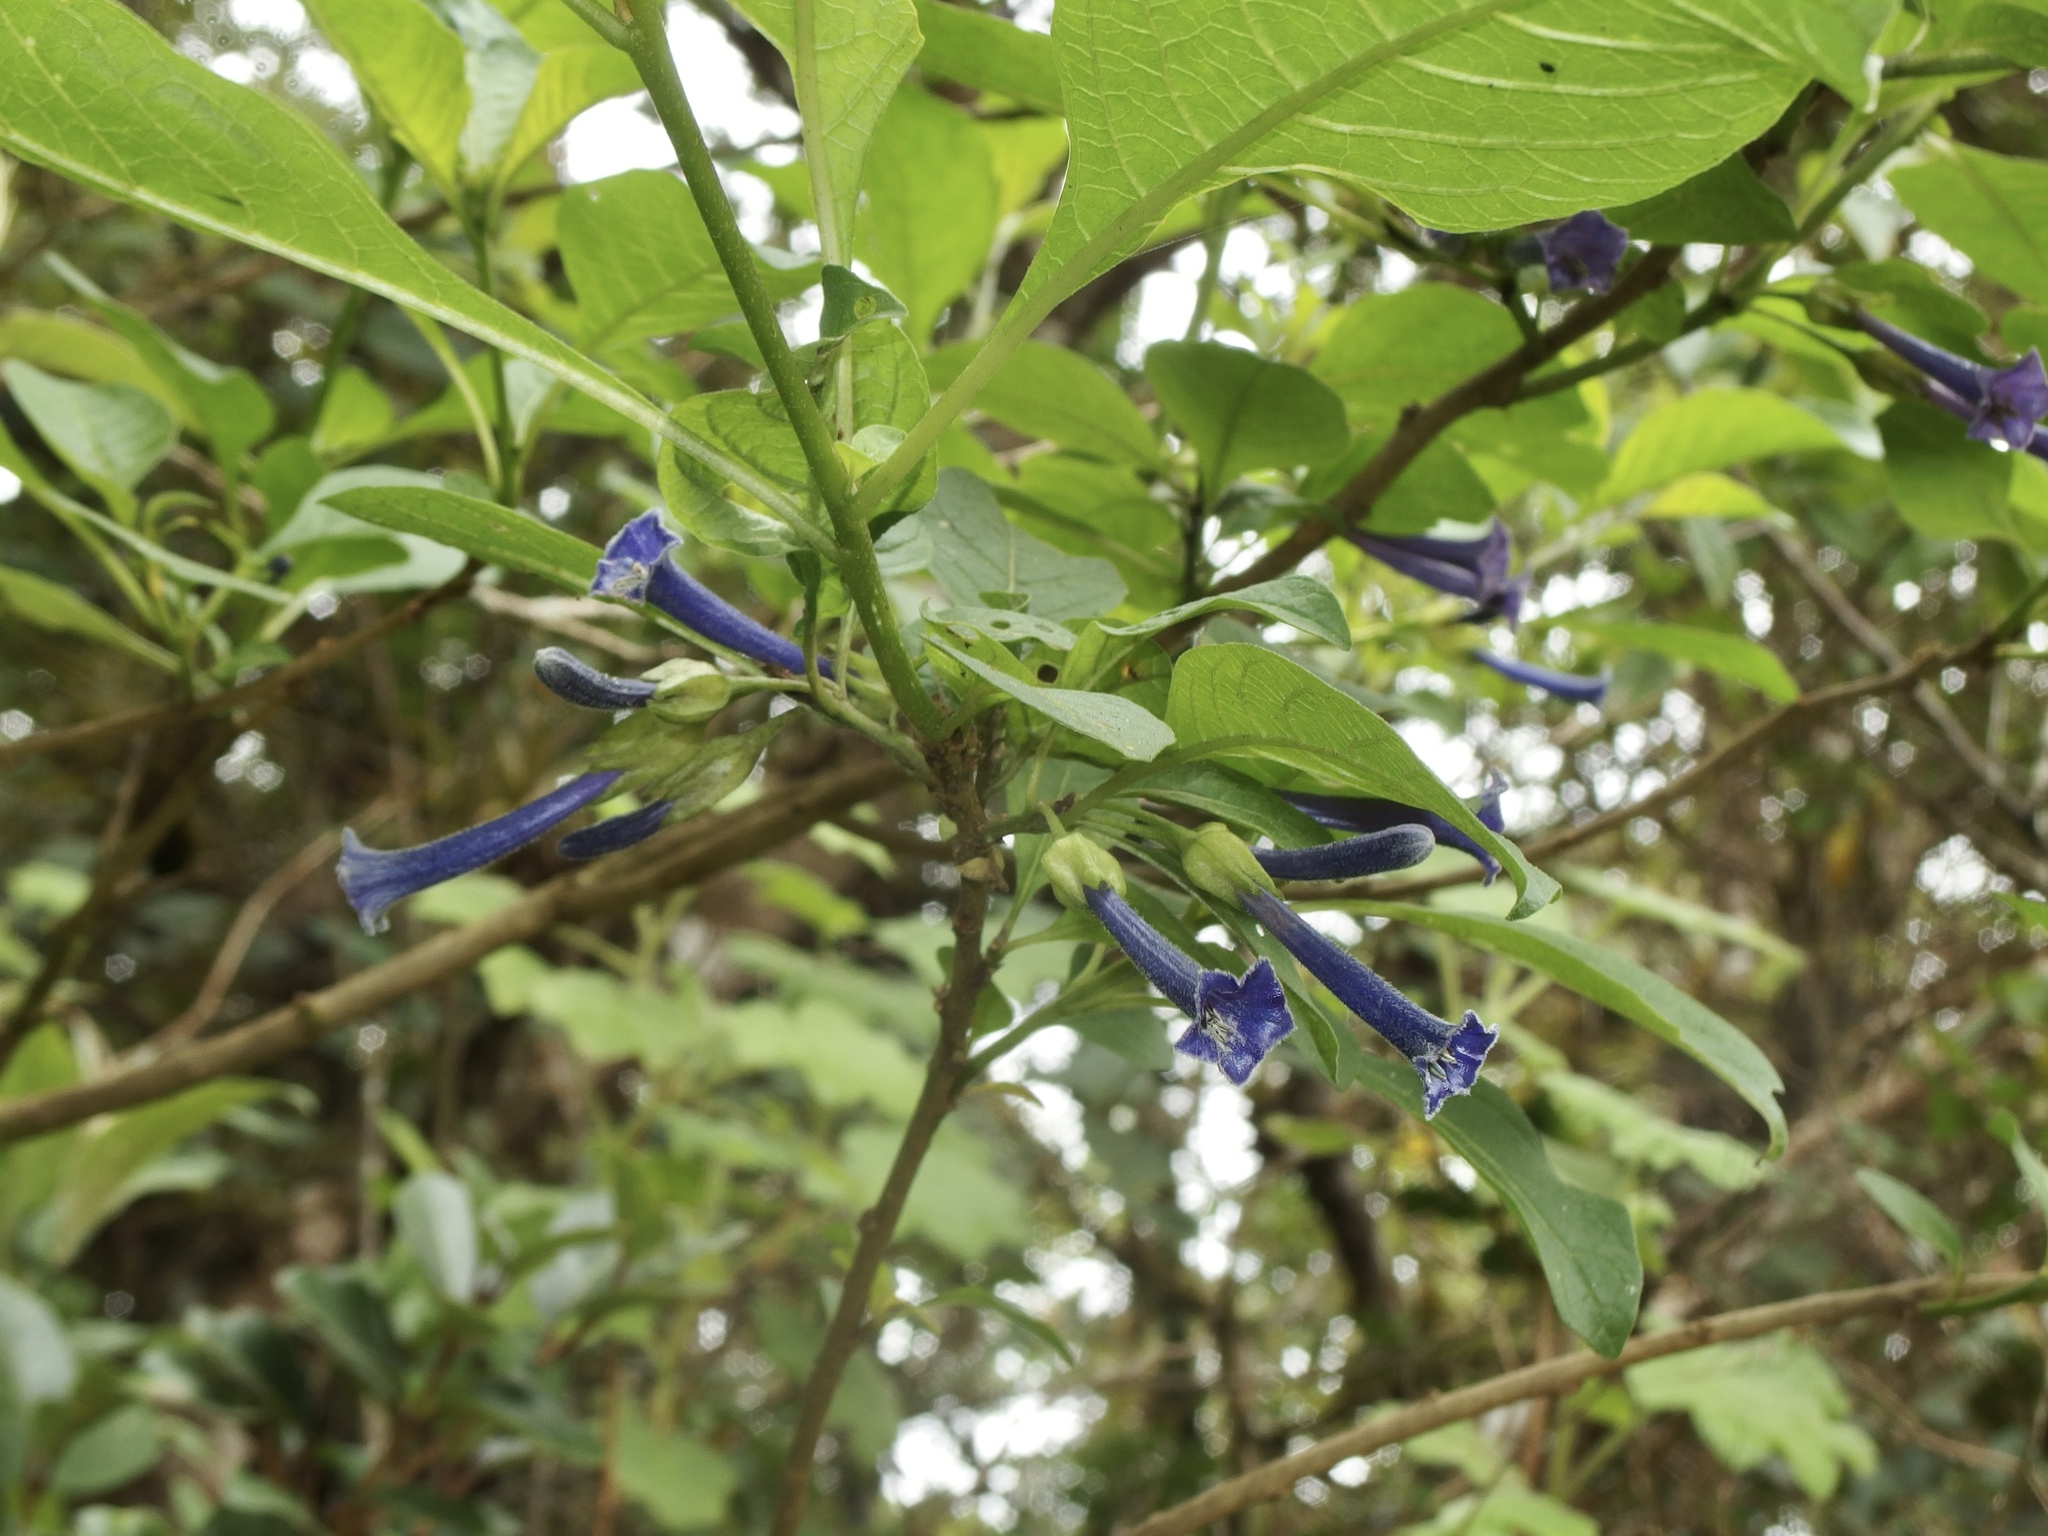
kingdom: Plantae
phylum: Tracheophyta
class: Magnoliopsida
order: Solanales
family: Solanaceae
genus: Iochroma
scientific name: Iochroma cyaneum
